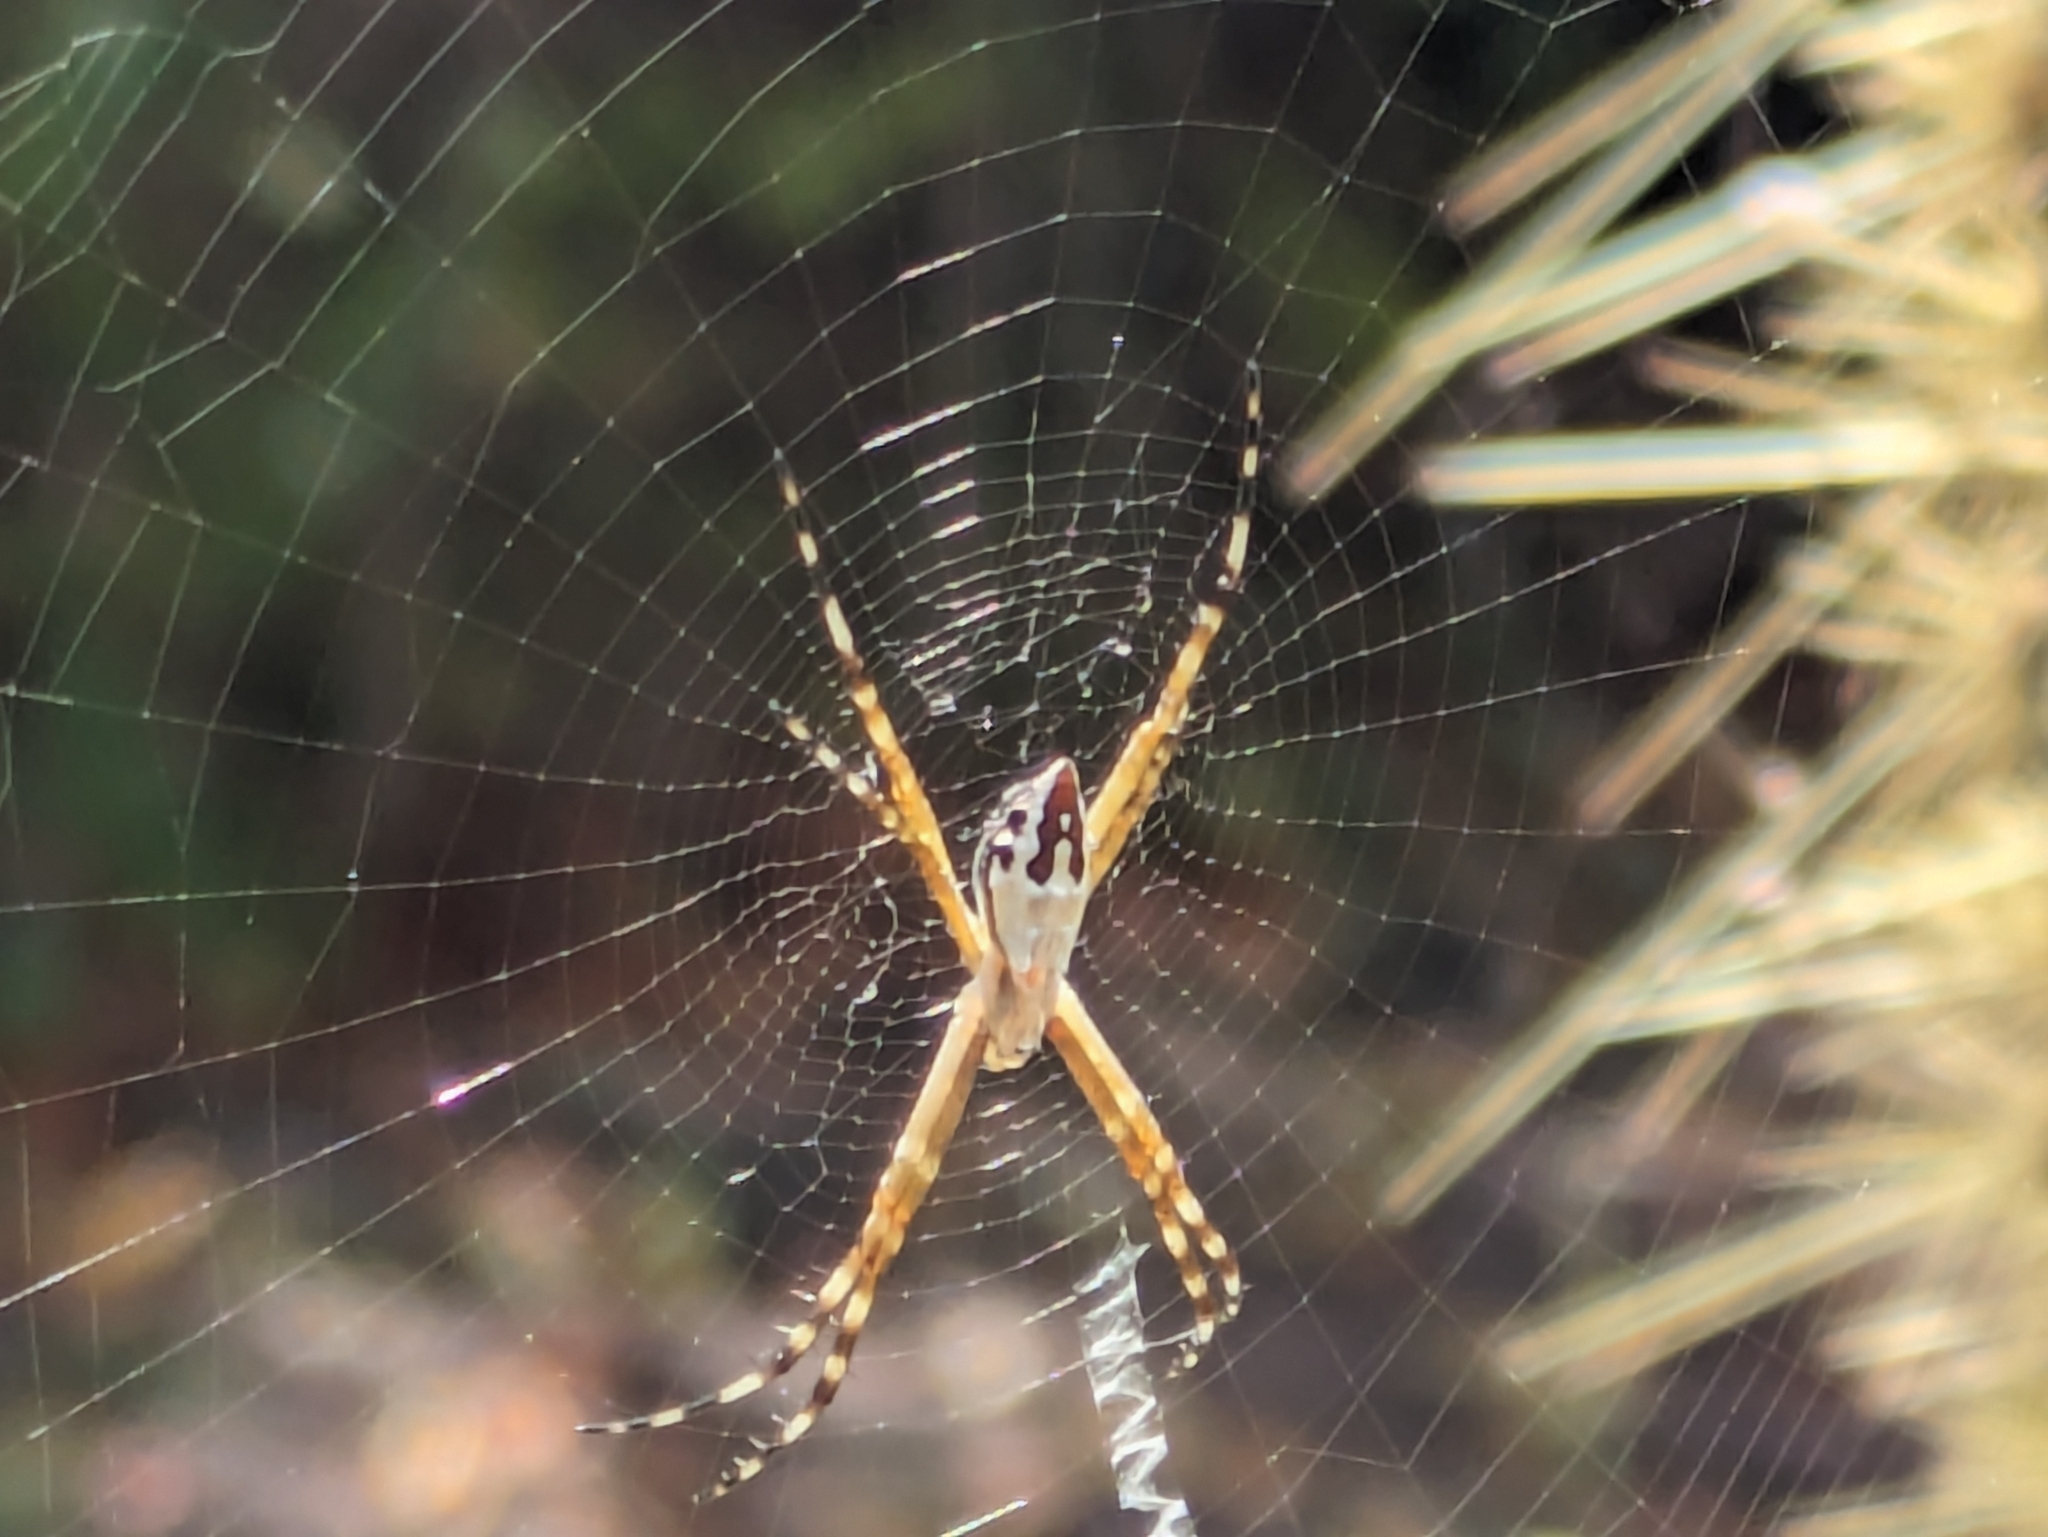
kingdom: Animalia
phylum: Arthropoda
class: Arachnida
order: Araneae
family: Araneidae
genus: Argiope
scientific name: Argiope argentata
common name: Orb weavers
